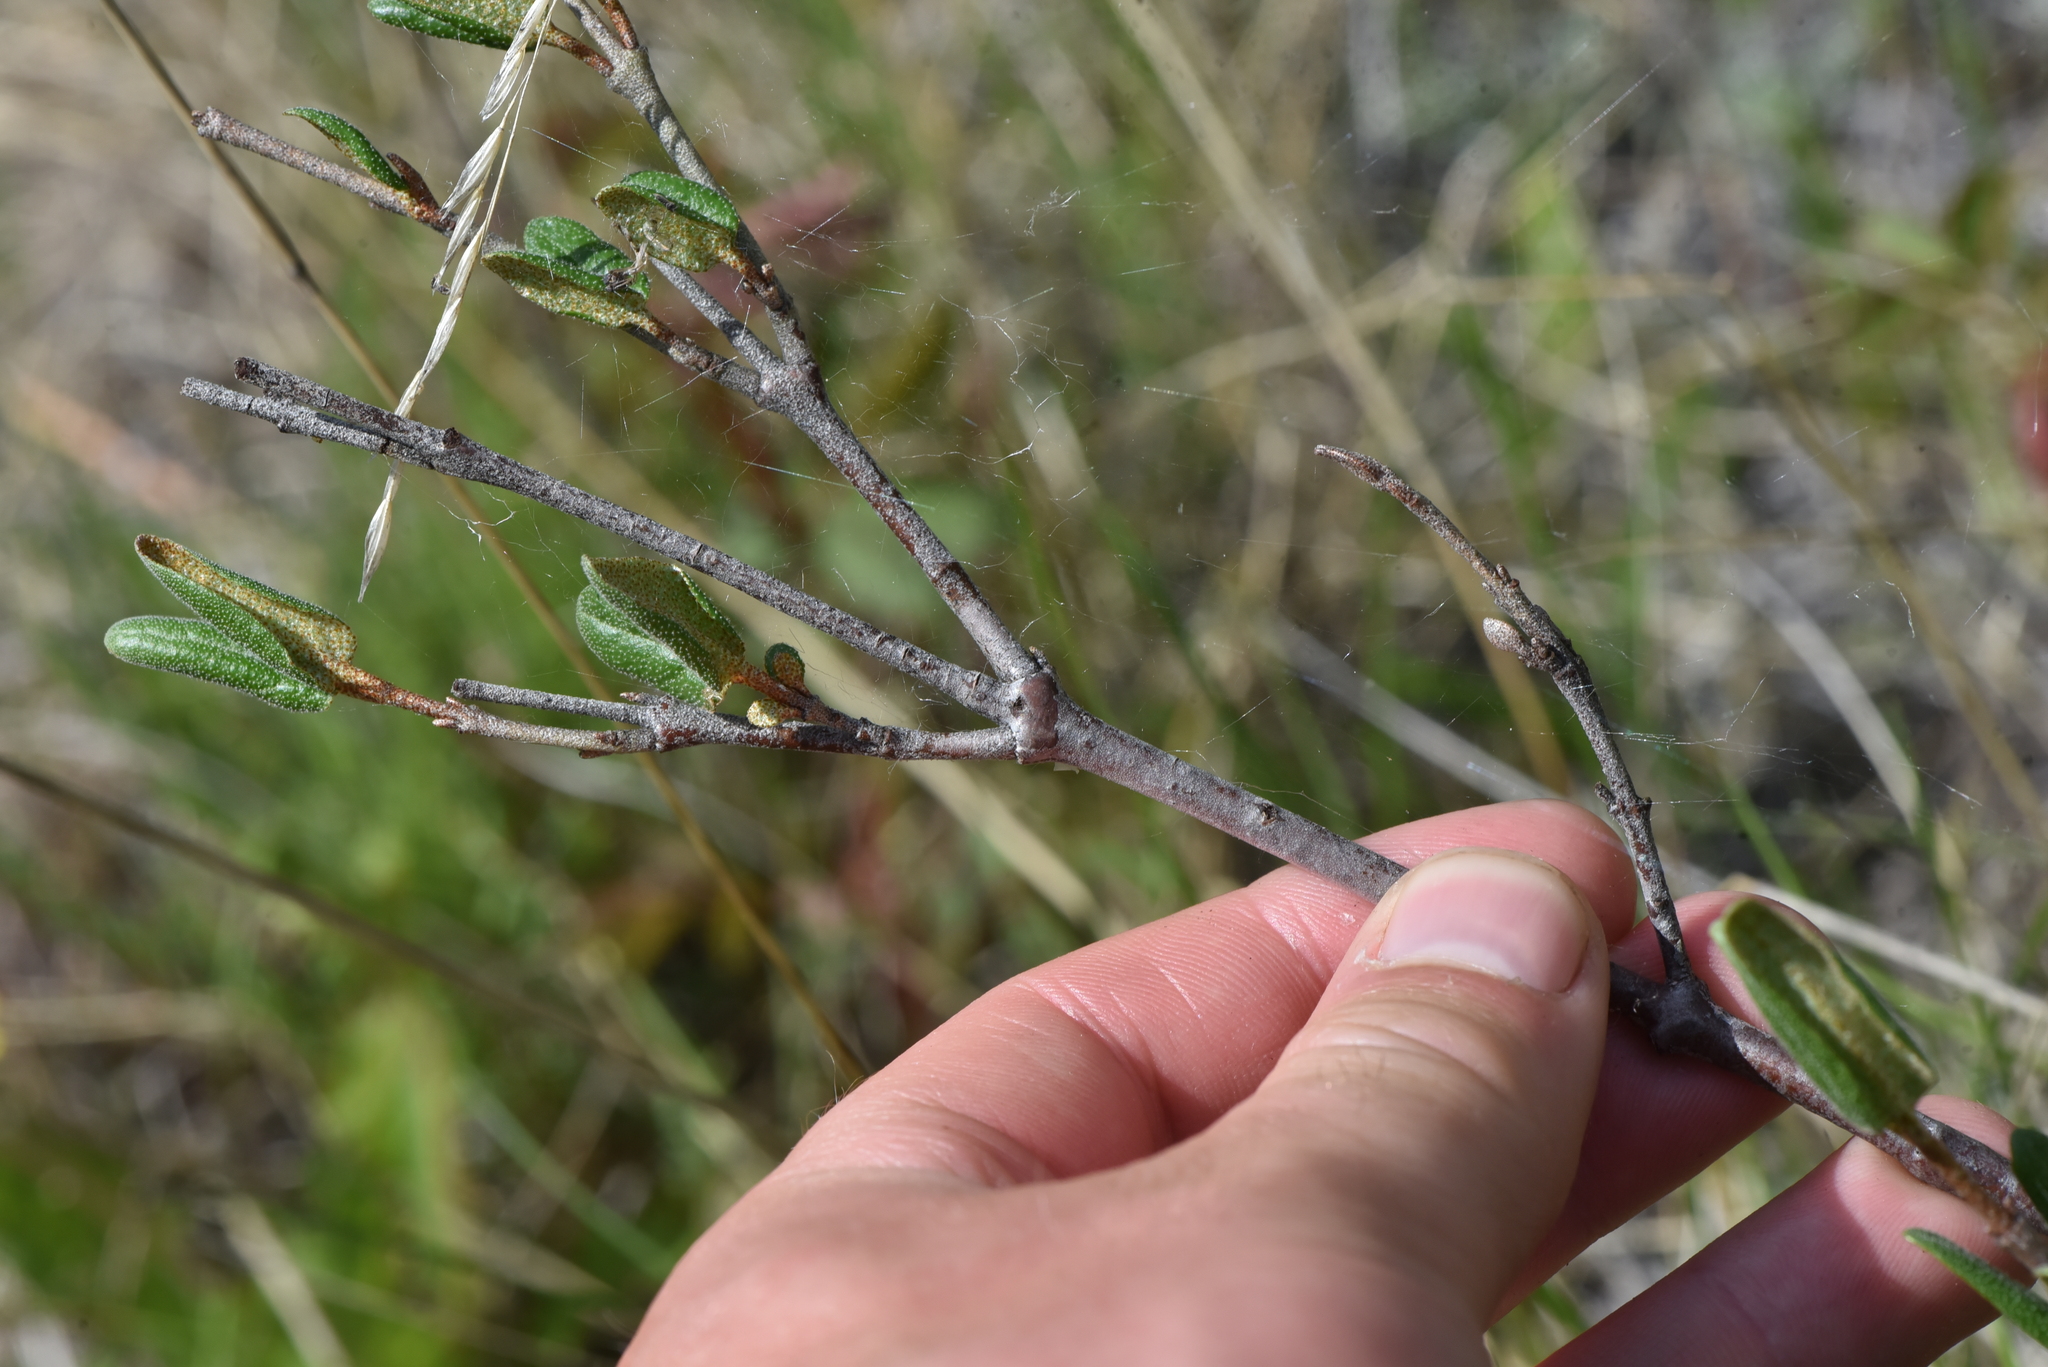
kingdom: Plantae
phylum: Tracheophyta
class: Magnoliopsida
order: Rosales
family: Elaeagnaceae
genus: Shepherdia
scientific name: Shepherdia canadensis
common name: Soapberry
